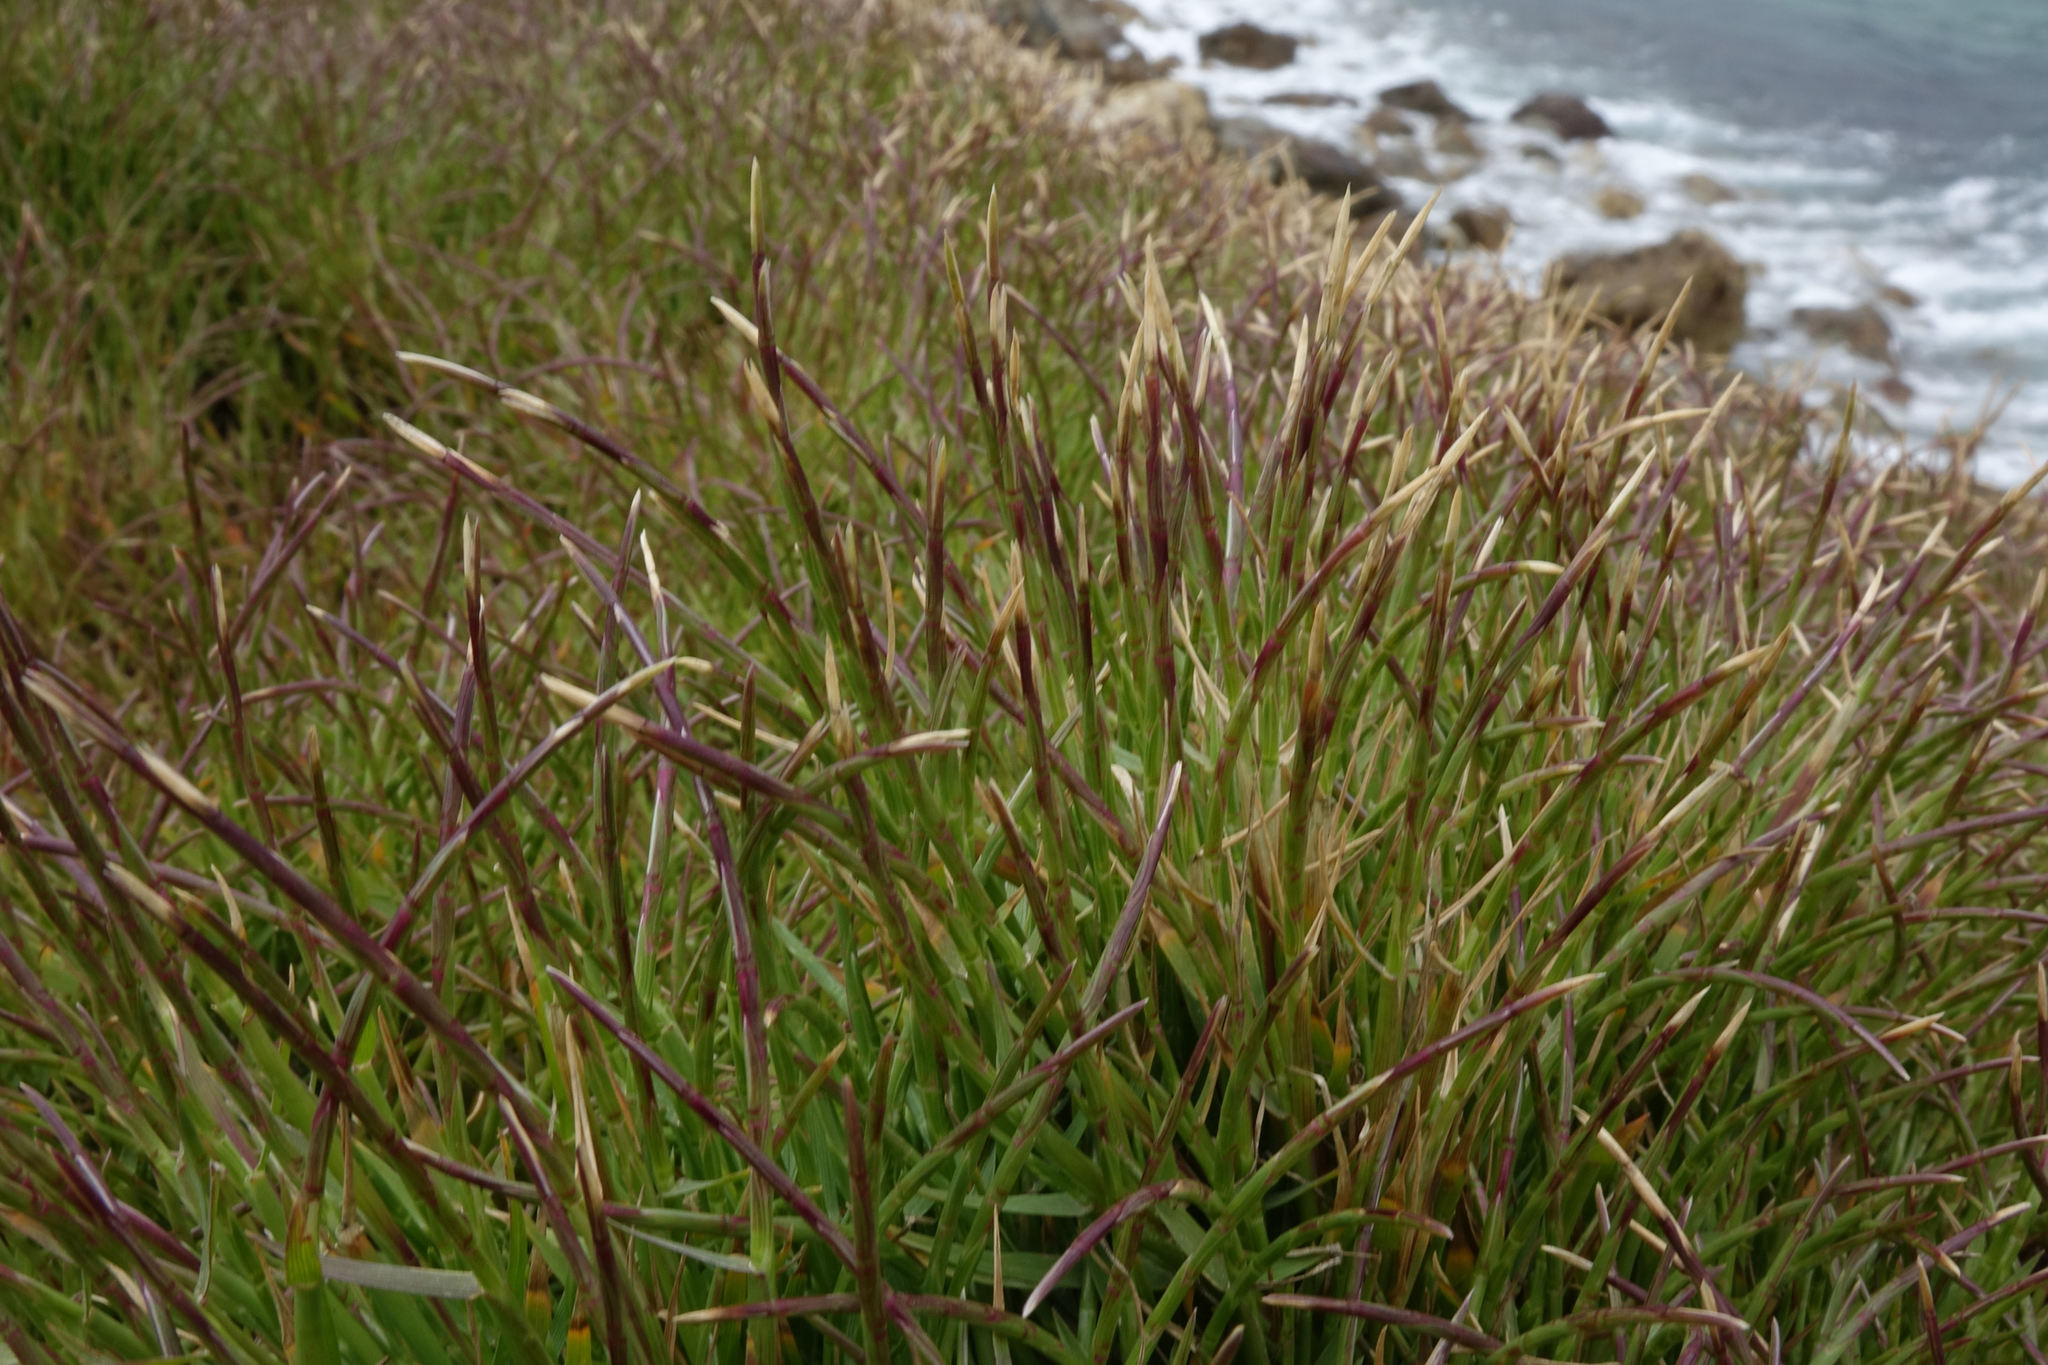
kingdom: Plantae
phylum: Tracheophyta
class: Liliopsida
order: Poales
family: Poaceae
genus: Parapholis
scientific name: Parapholis incurva
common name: Curved sicklegrass
